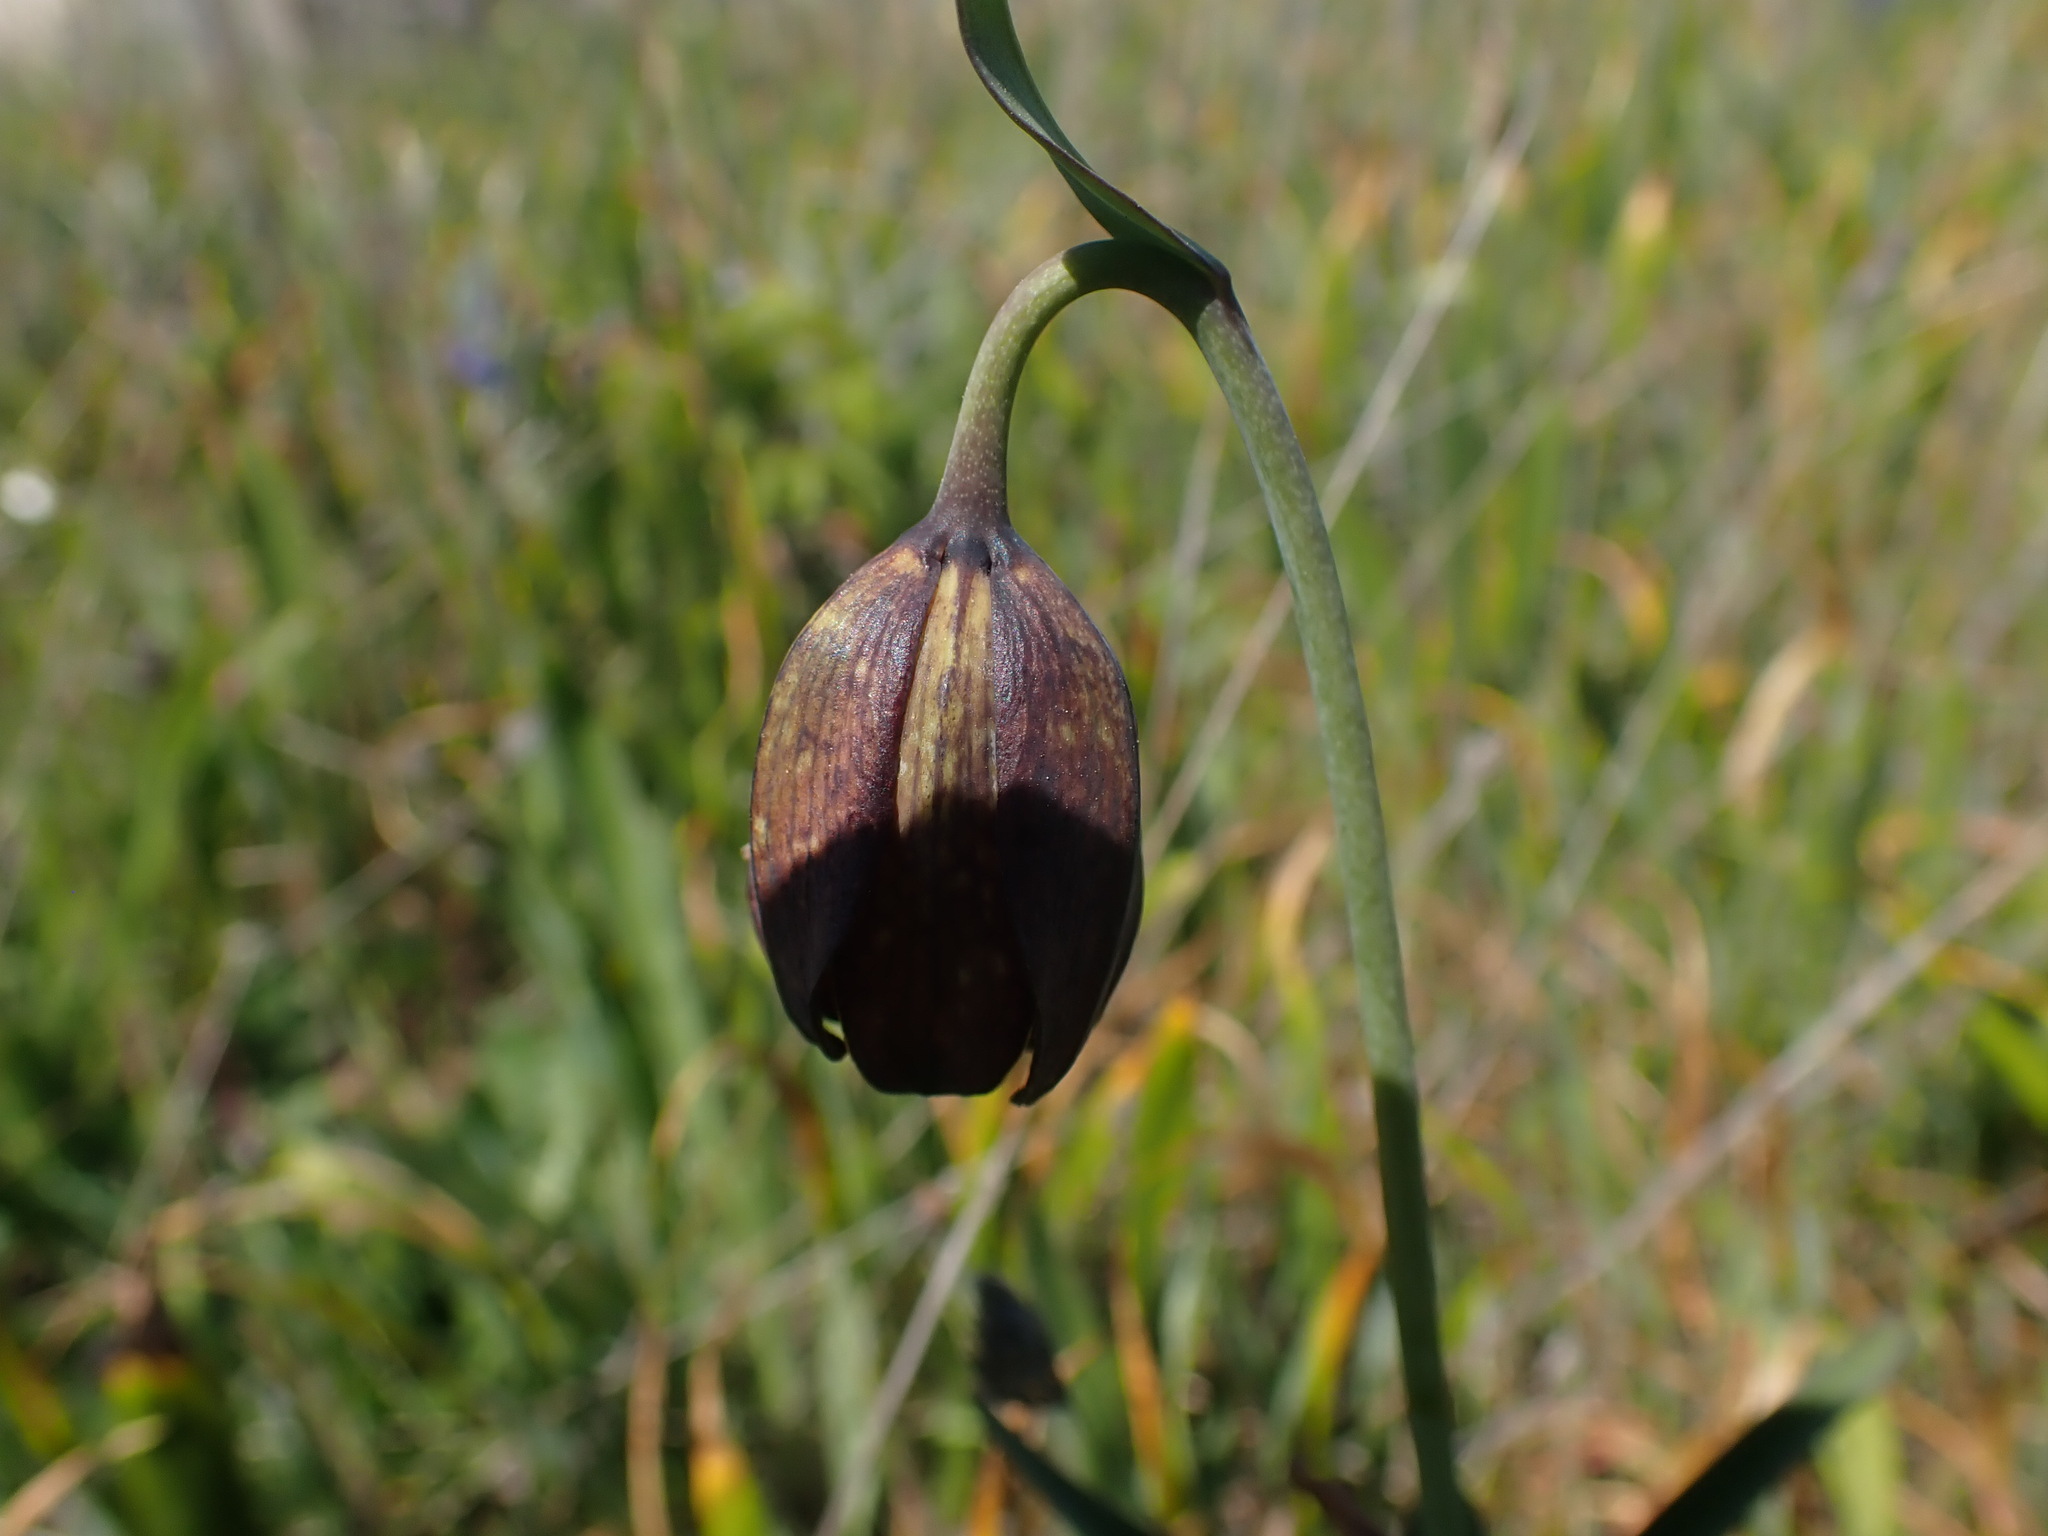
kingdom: Plantae
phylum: Tracheophyta
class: Liliopsida
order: Liliales
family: Liliaceae
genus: Fritillaria
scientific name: Fritillaria affinis
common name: Ojai fritillary
